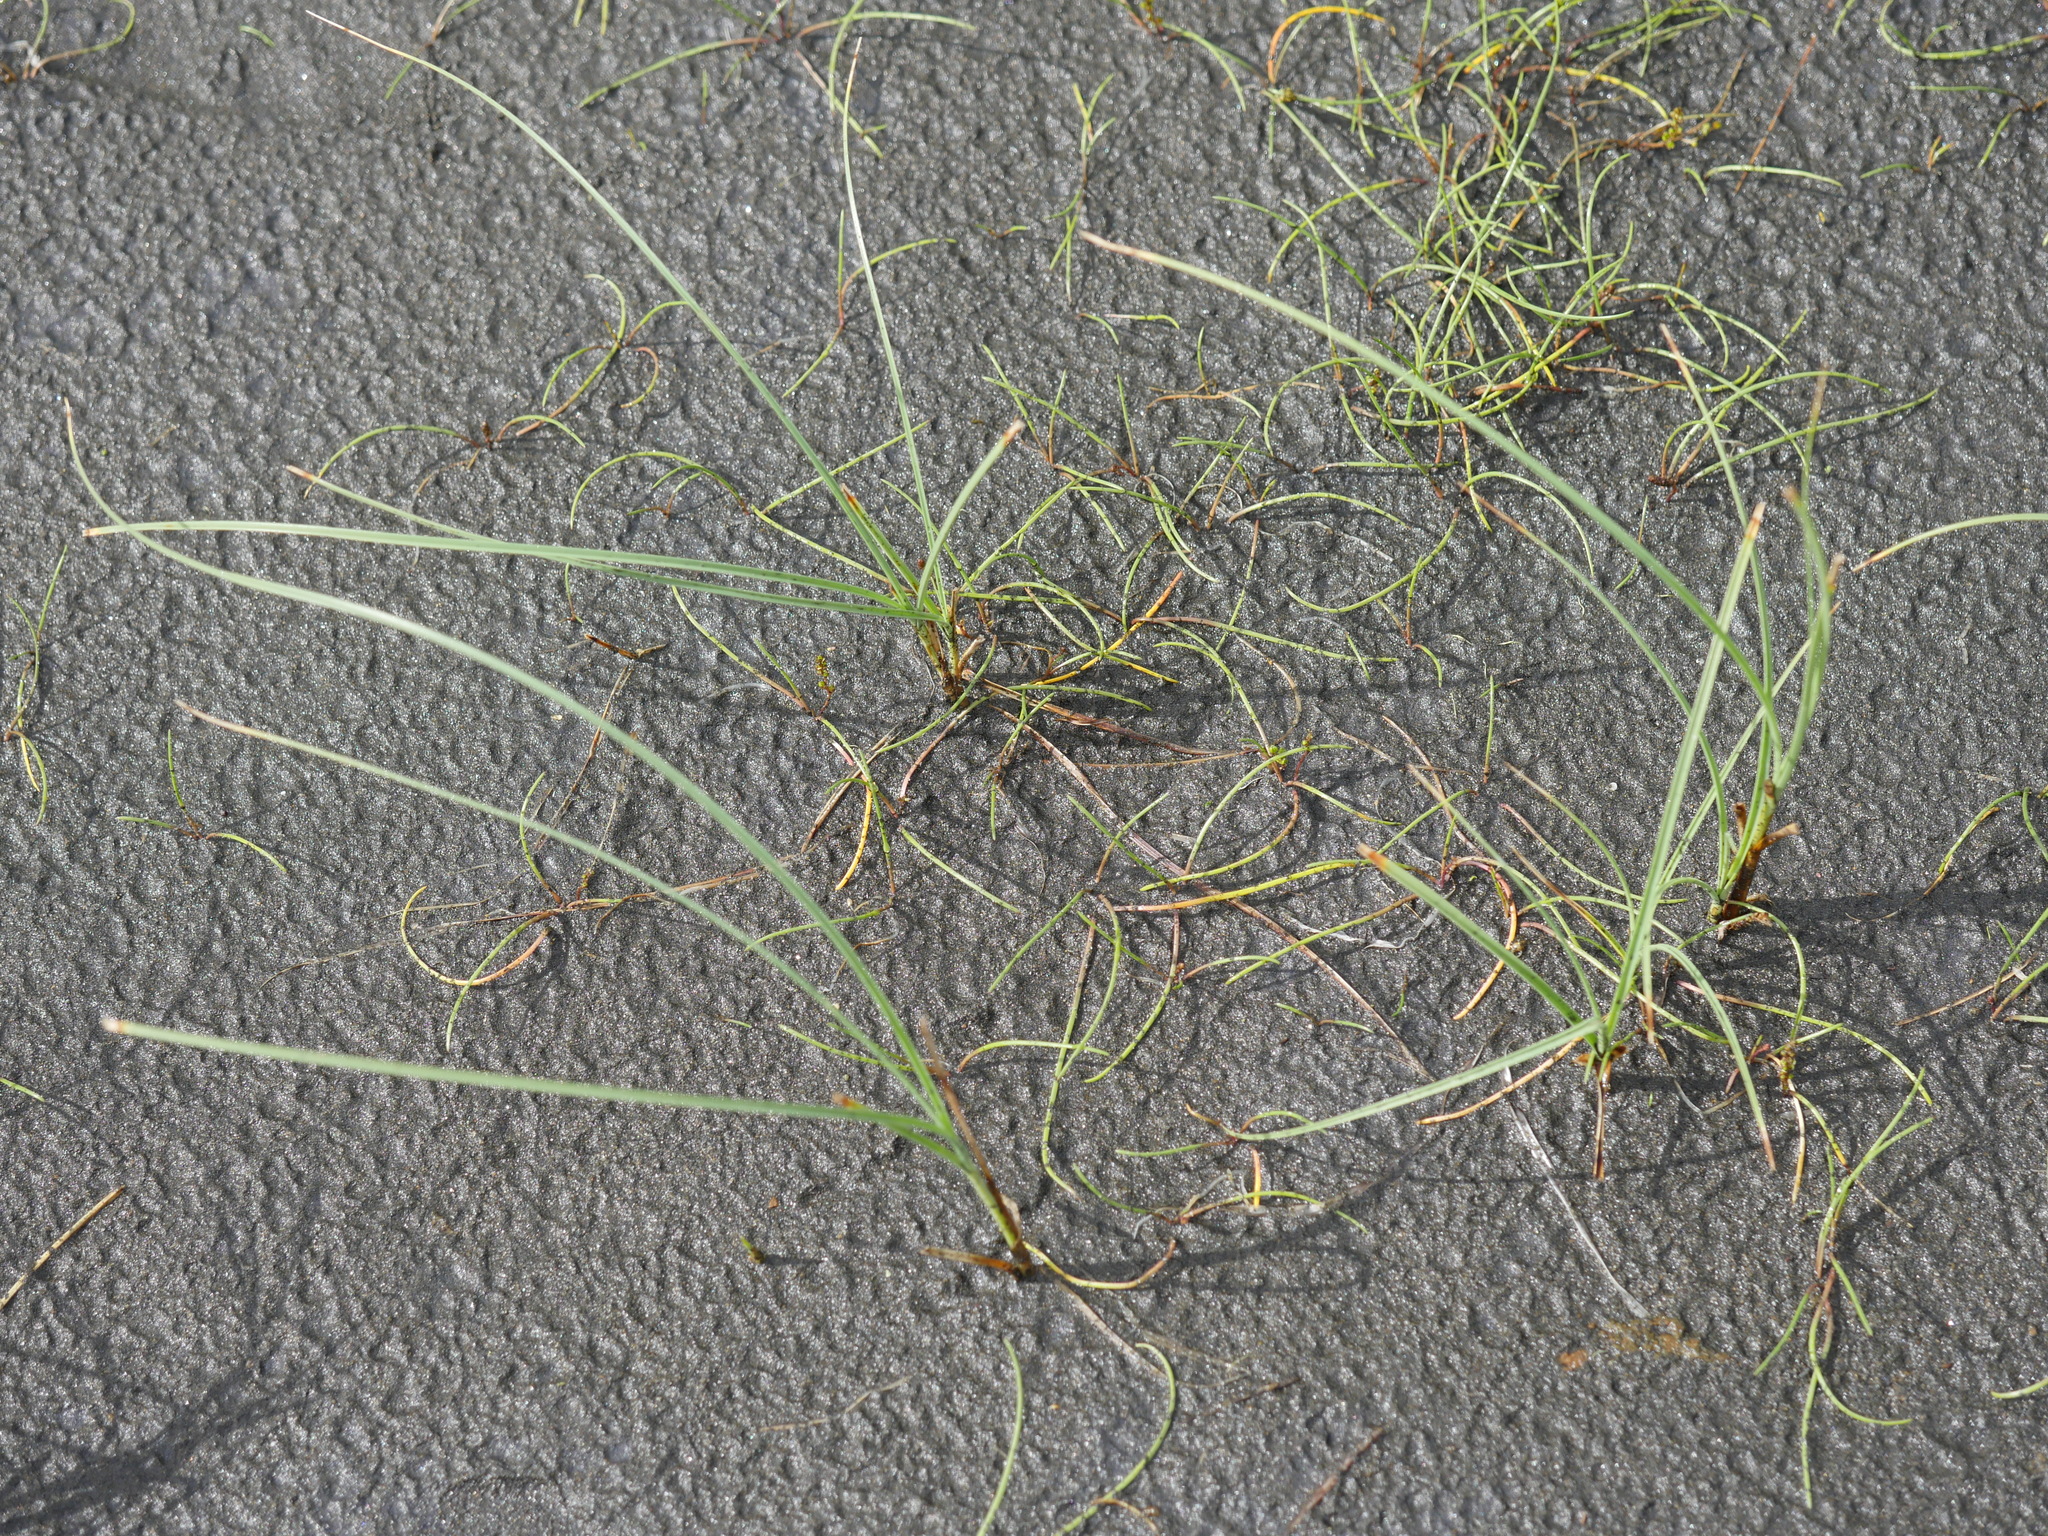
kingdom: Plantae
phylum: Tracheophyta
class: Liliopsida
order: Poales
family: Cyperaceae
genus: Carex
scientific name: Carex pumila
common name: Dwarf sedge
